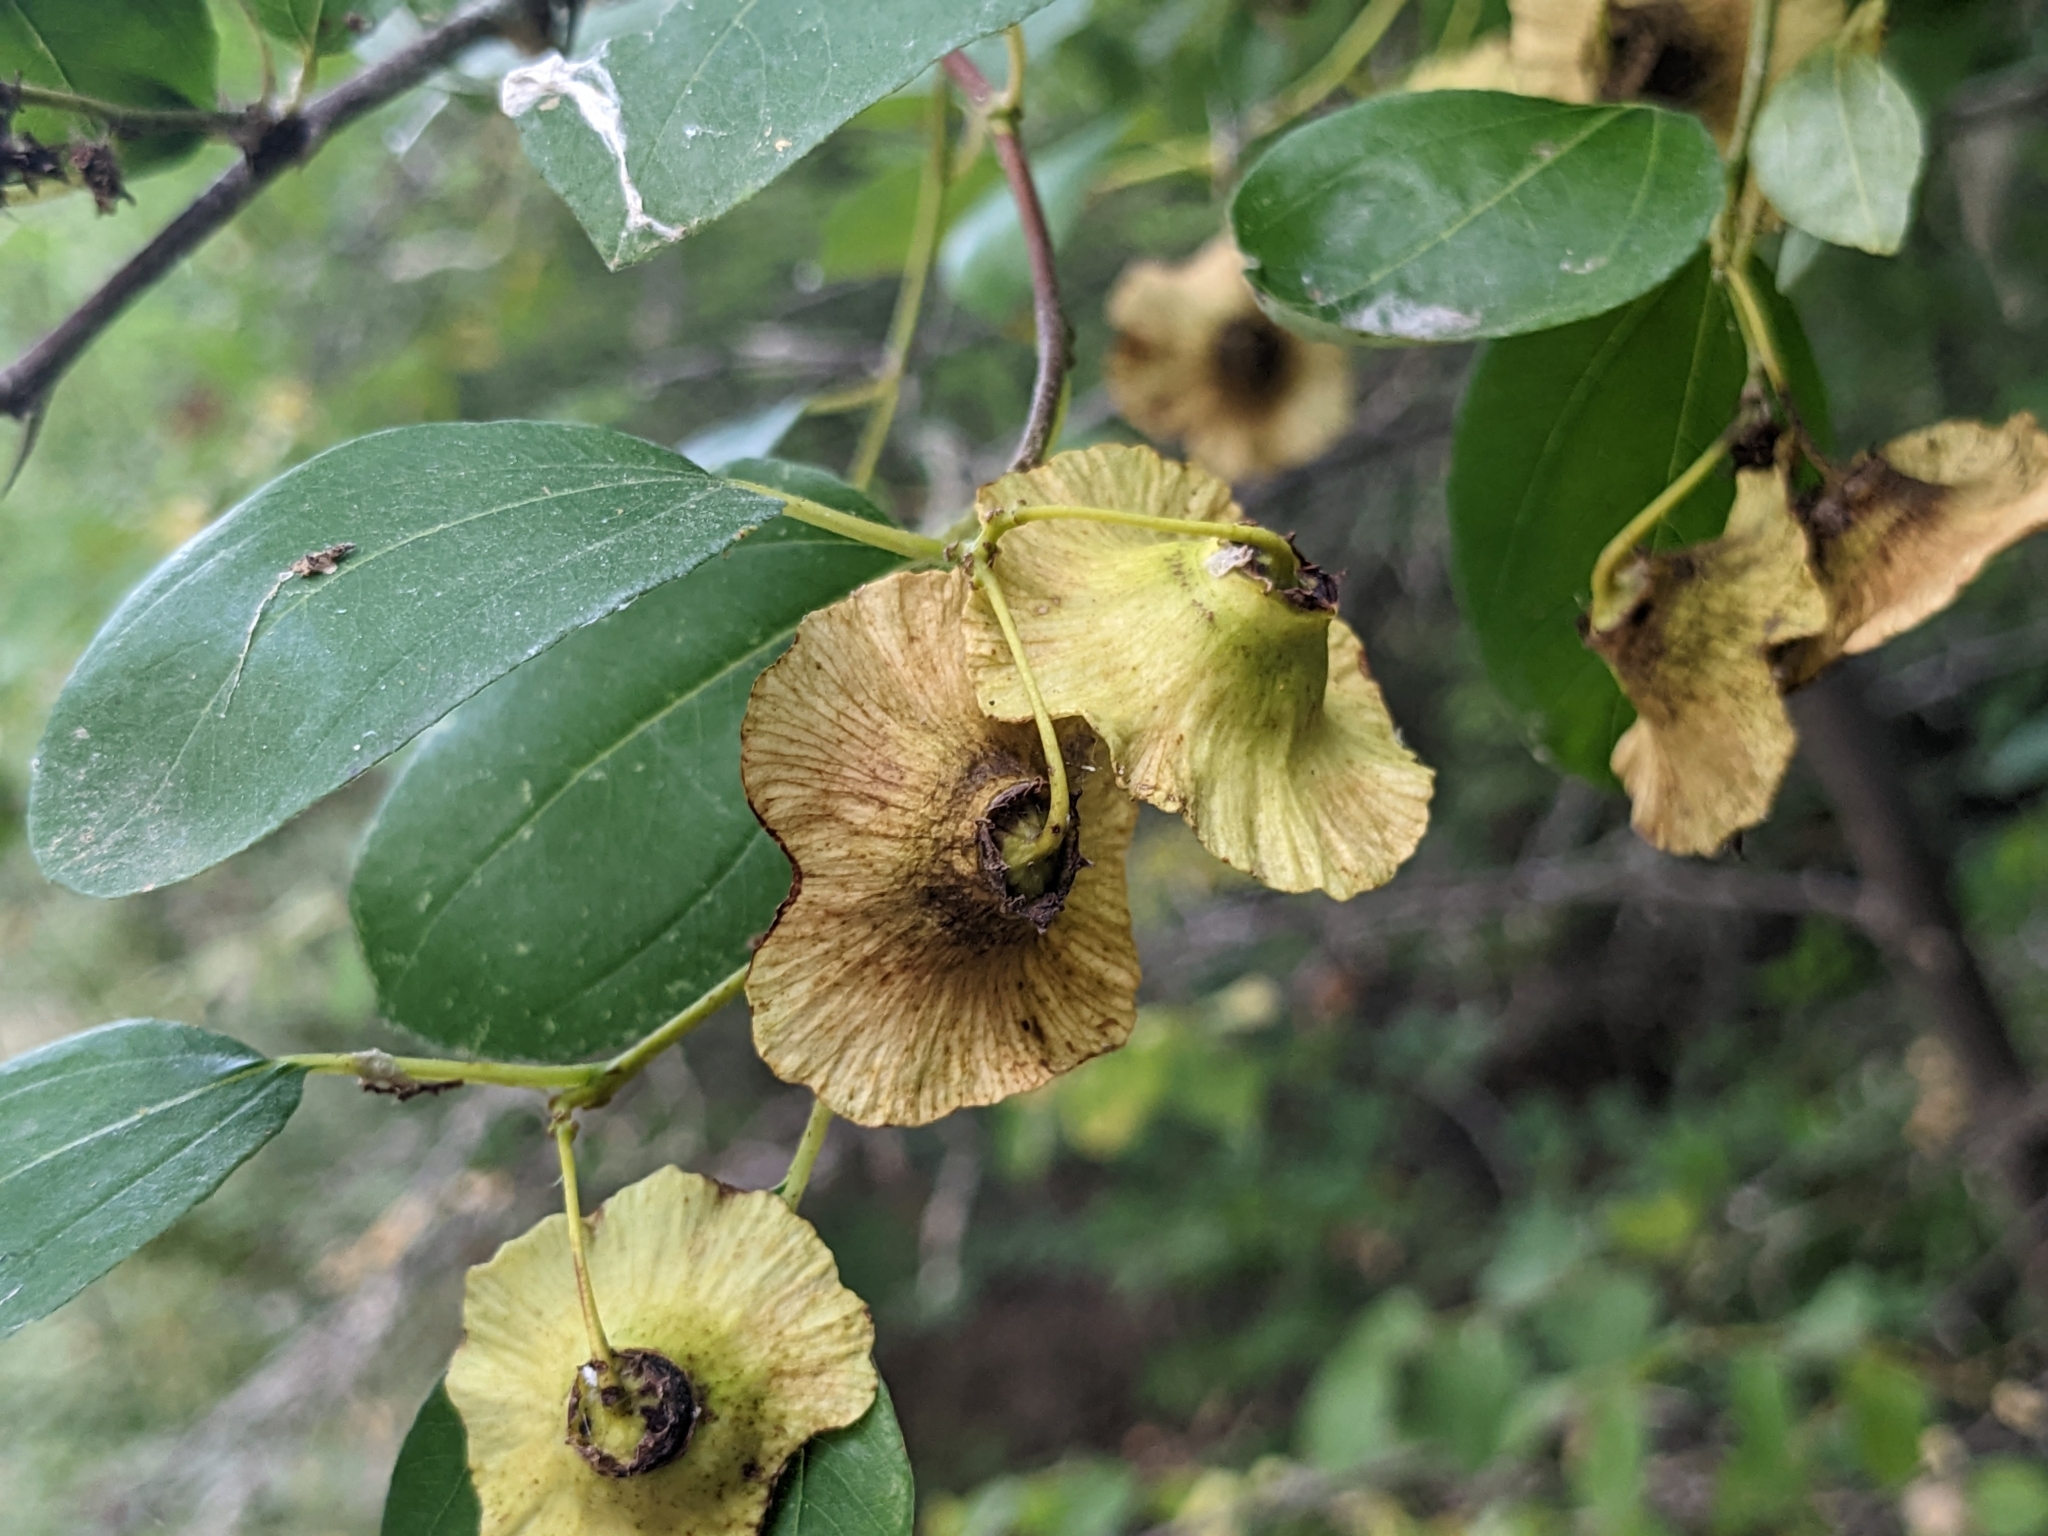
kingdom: Plantae
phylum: Tracheophyta
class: Magnoliopsida
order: Rosales
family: Rhamnaceae
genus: Paliurus
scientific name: Paliurus spina-christi
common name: Jeruselem thorn
